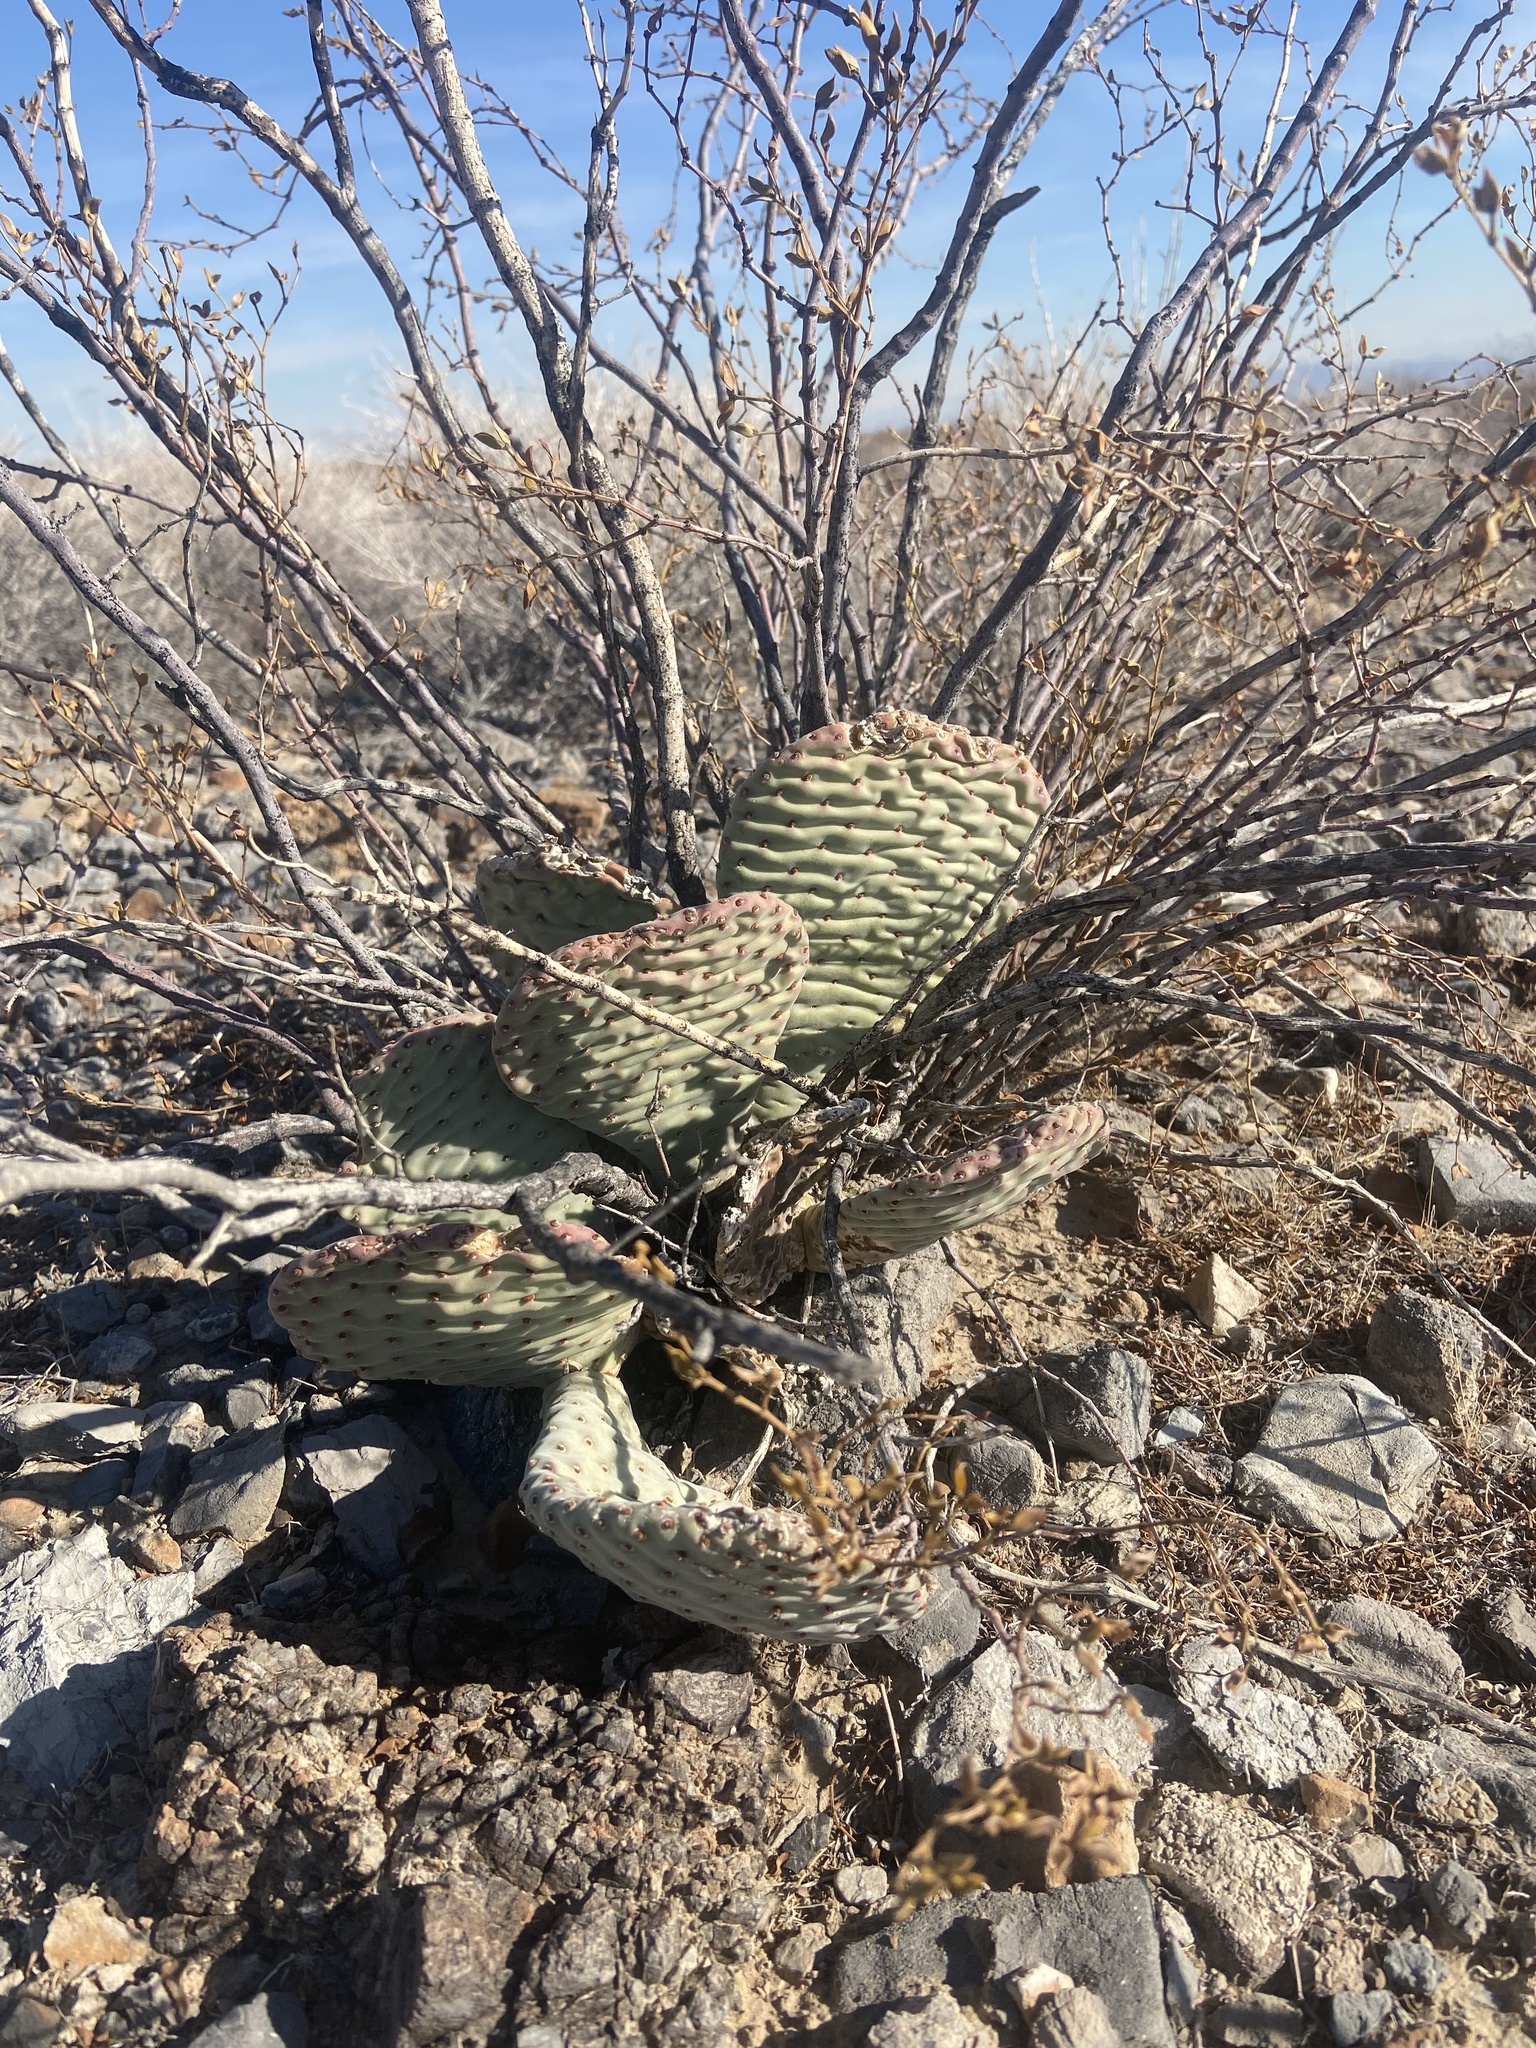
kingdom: Plantae
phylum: Tracheophyta
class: Magnoliopsida
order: Caryophyllales
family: Cactaceae
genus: Opuntia
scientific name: Opuntia basilaris
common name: Beavertail prickly-pear
